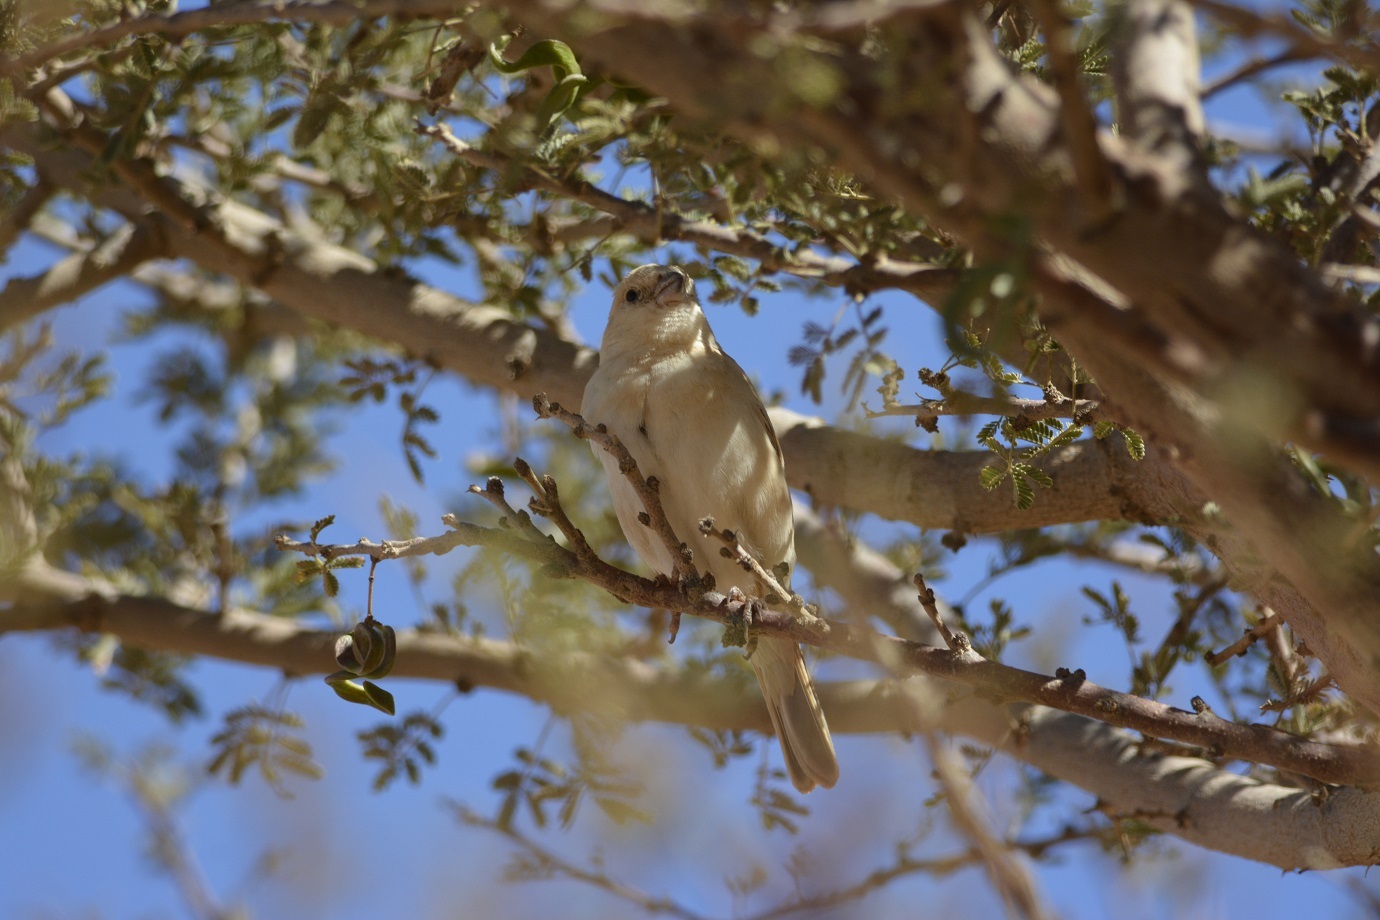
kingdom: Animalia
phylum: Chordata
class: Aves
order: Passeriformes
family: Passeridae
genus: Passer
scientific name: Passer simplex
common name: Desert sparrow
